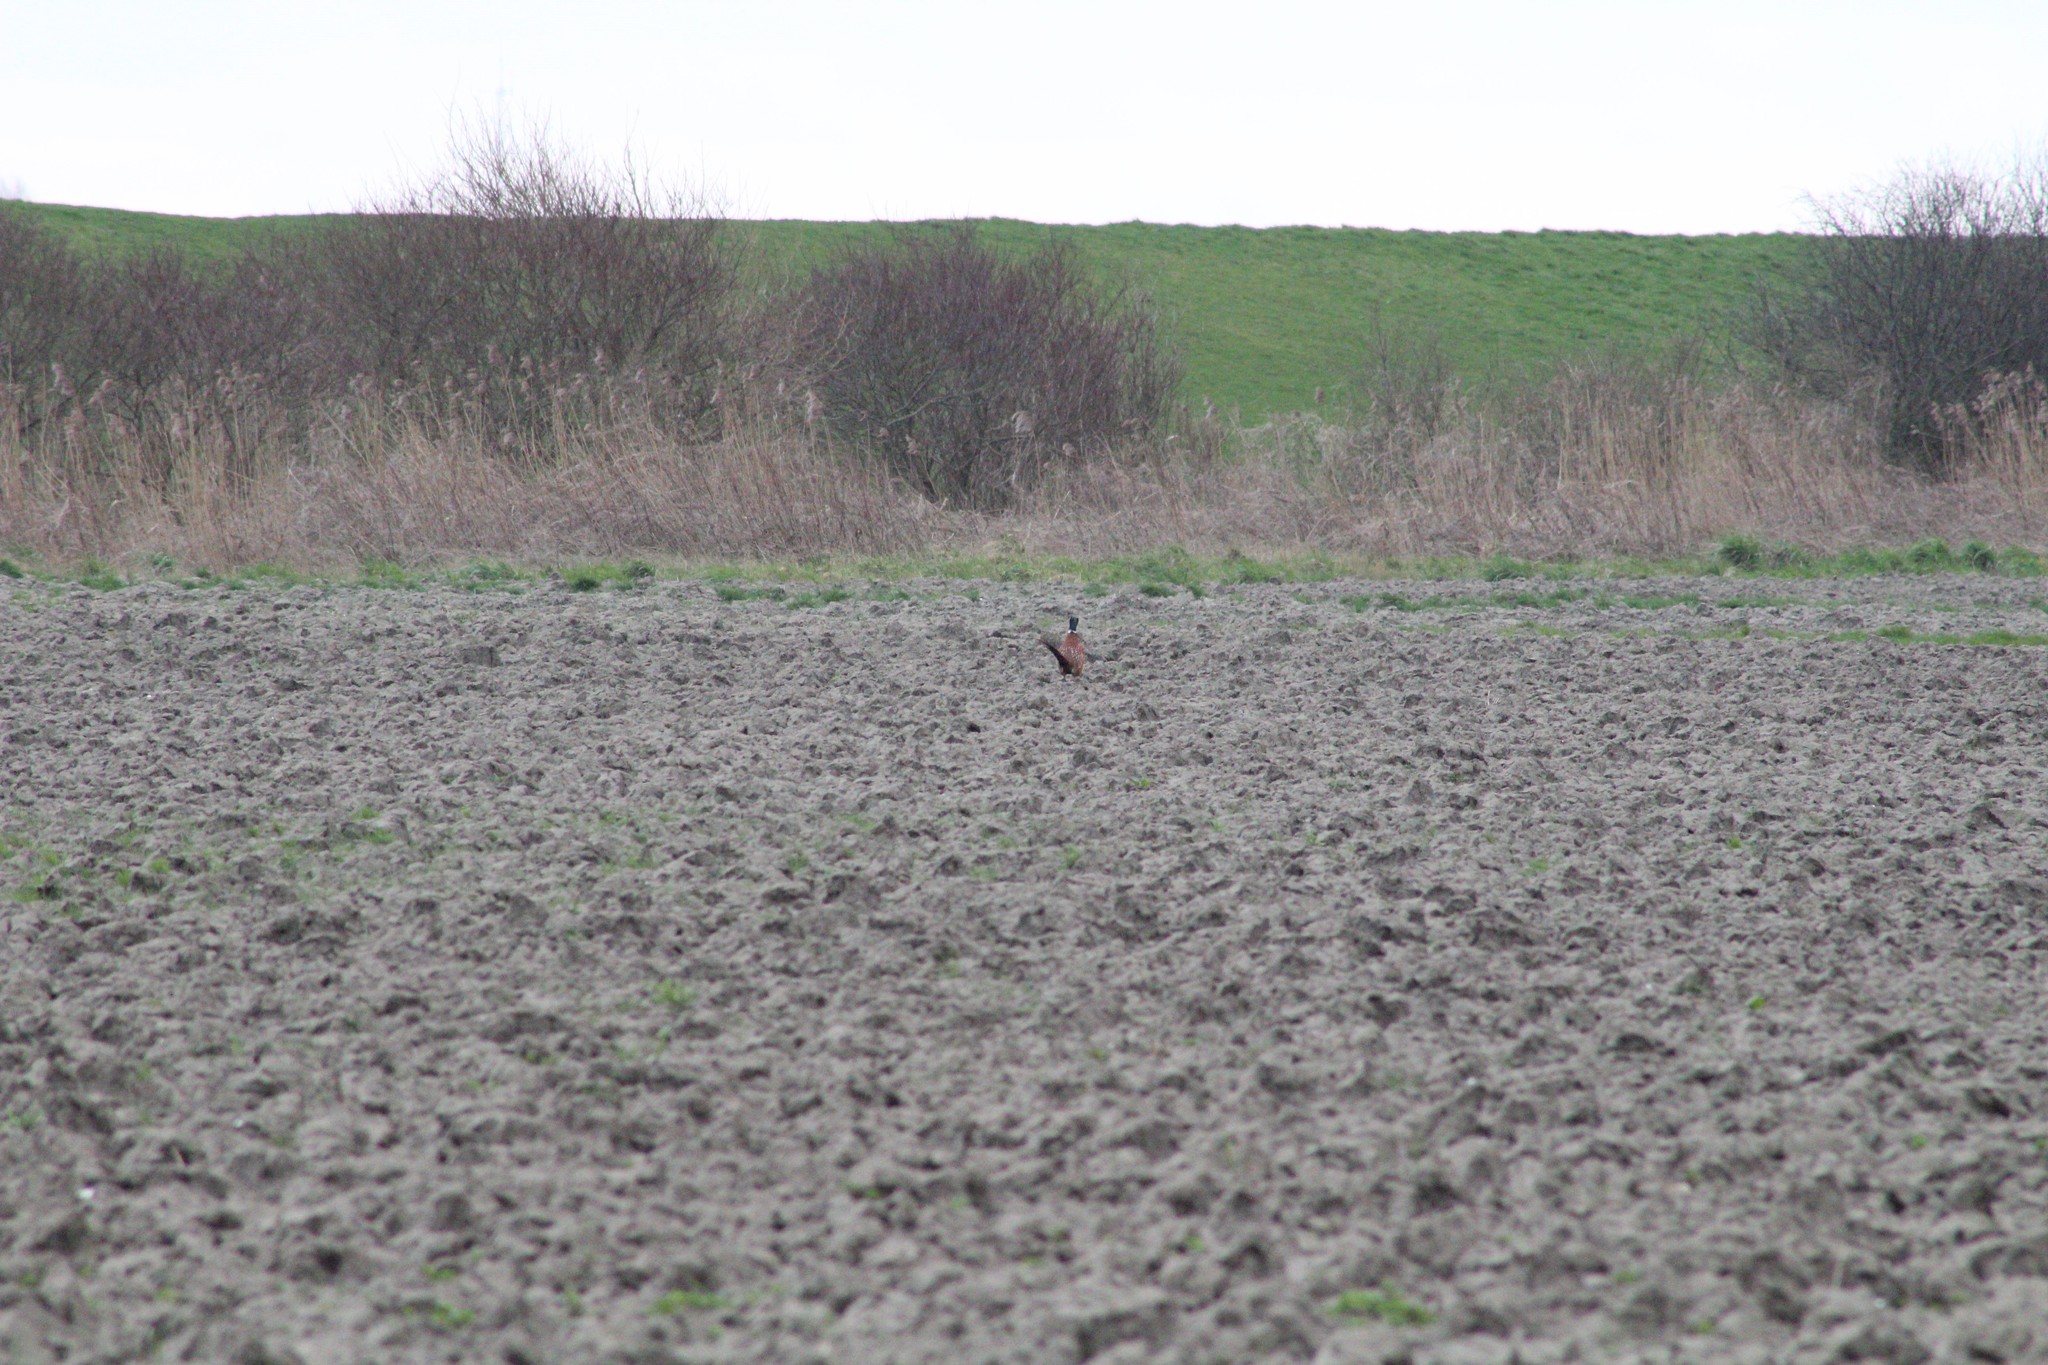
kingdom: Animalia
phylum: Chordata
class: Aves
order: Galliformes
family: Phasianidae
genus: Phasianus
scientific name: Phasianus colchicus
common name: Common pheasant
